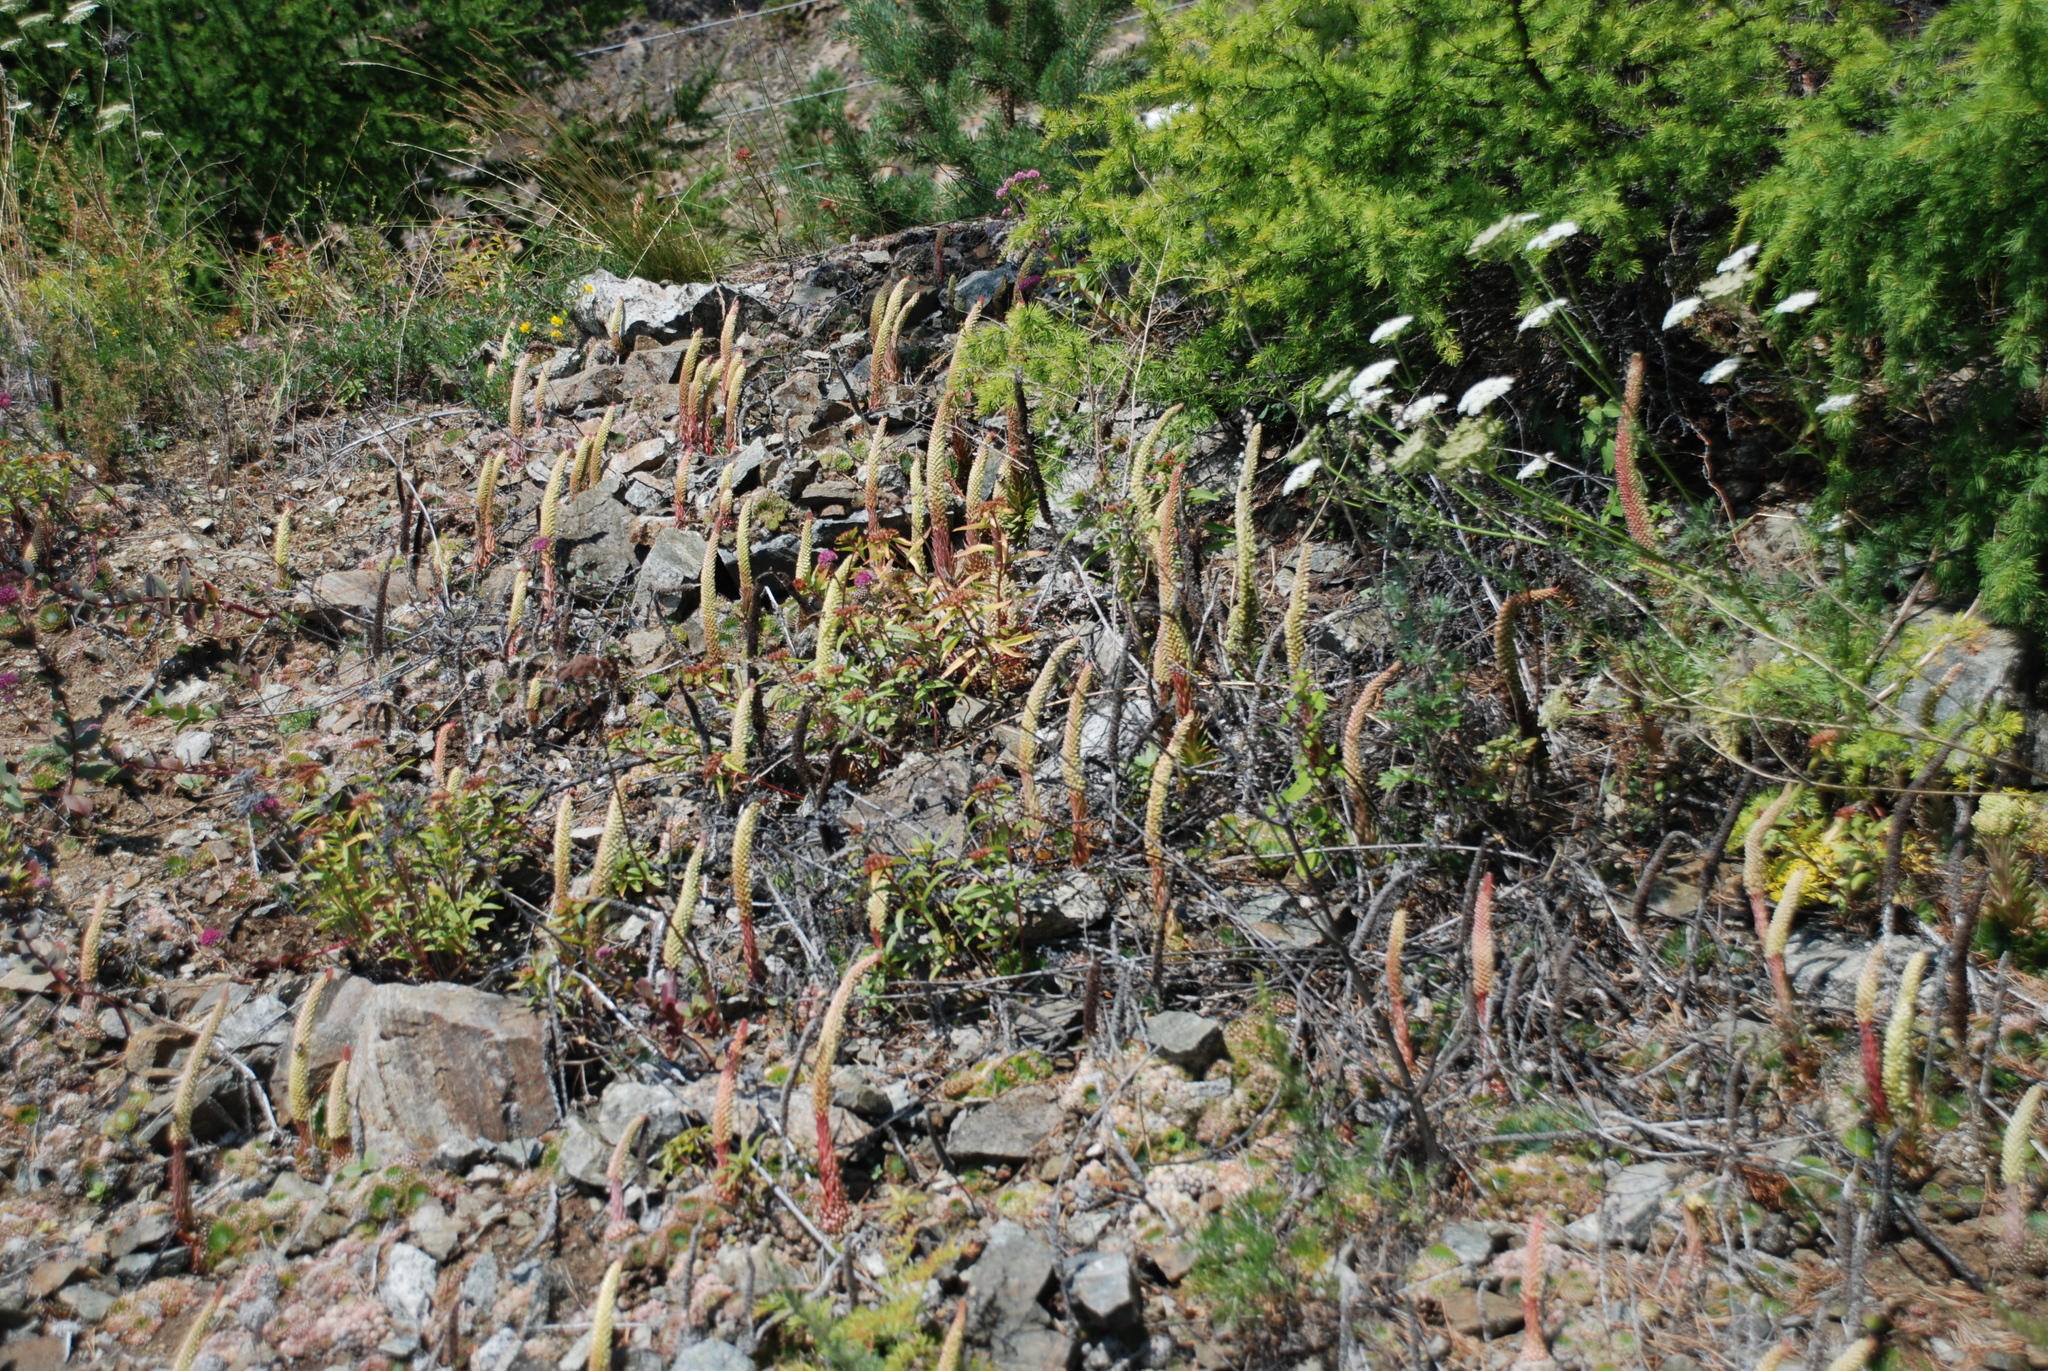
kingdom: Plantae
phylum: Tracheophyta
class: Magnoliopsida
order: Saxifragales
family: Crassulaceae
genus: Orostachys
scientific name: Orostachys spinosa
